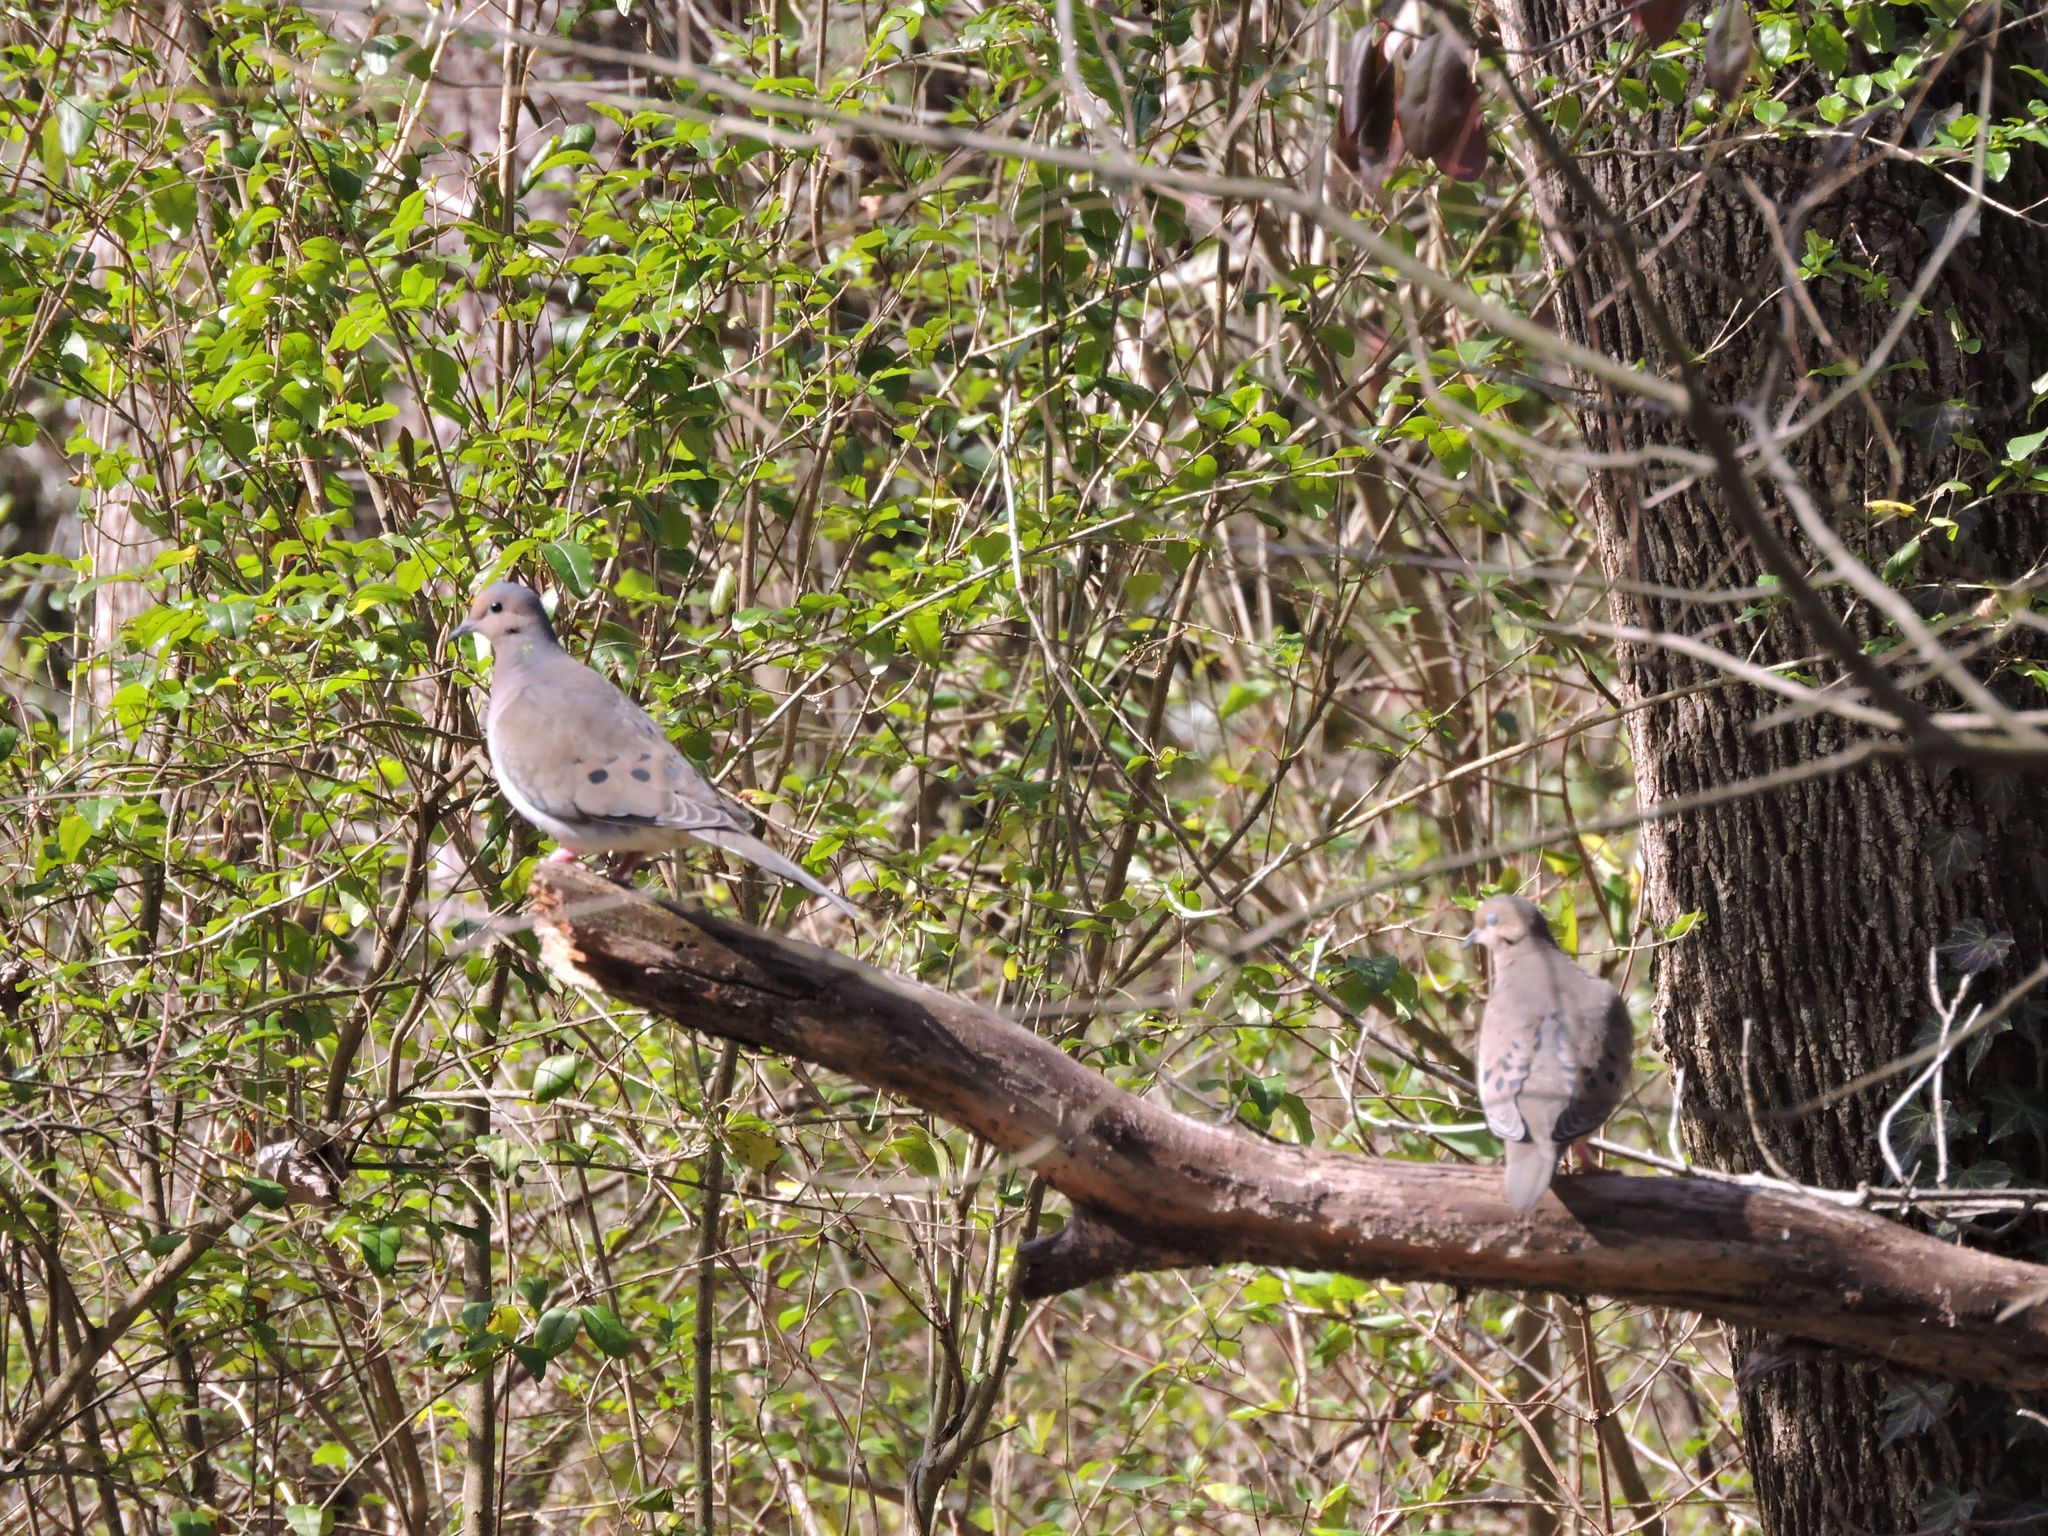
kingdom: Animalia
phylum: Chordata
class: Aves
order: Columbiformes
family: Columbidae
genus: Zenaida
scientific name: Zenaida macroura
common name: Mourning dove
